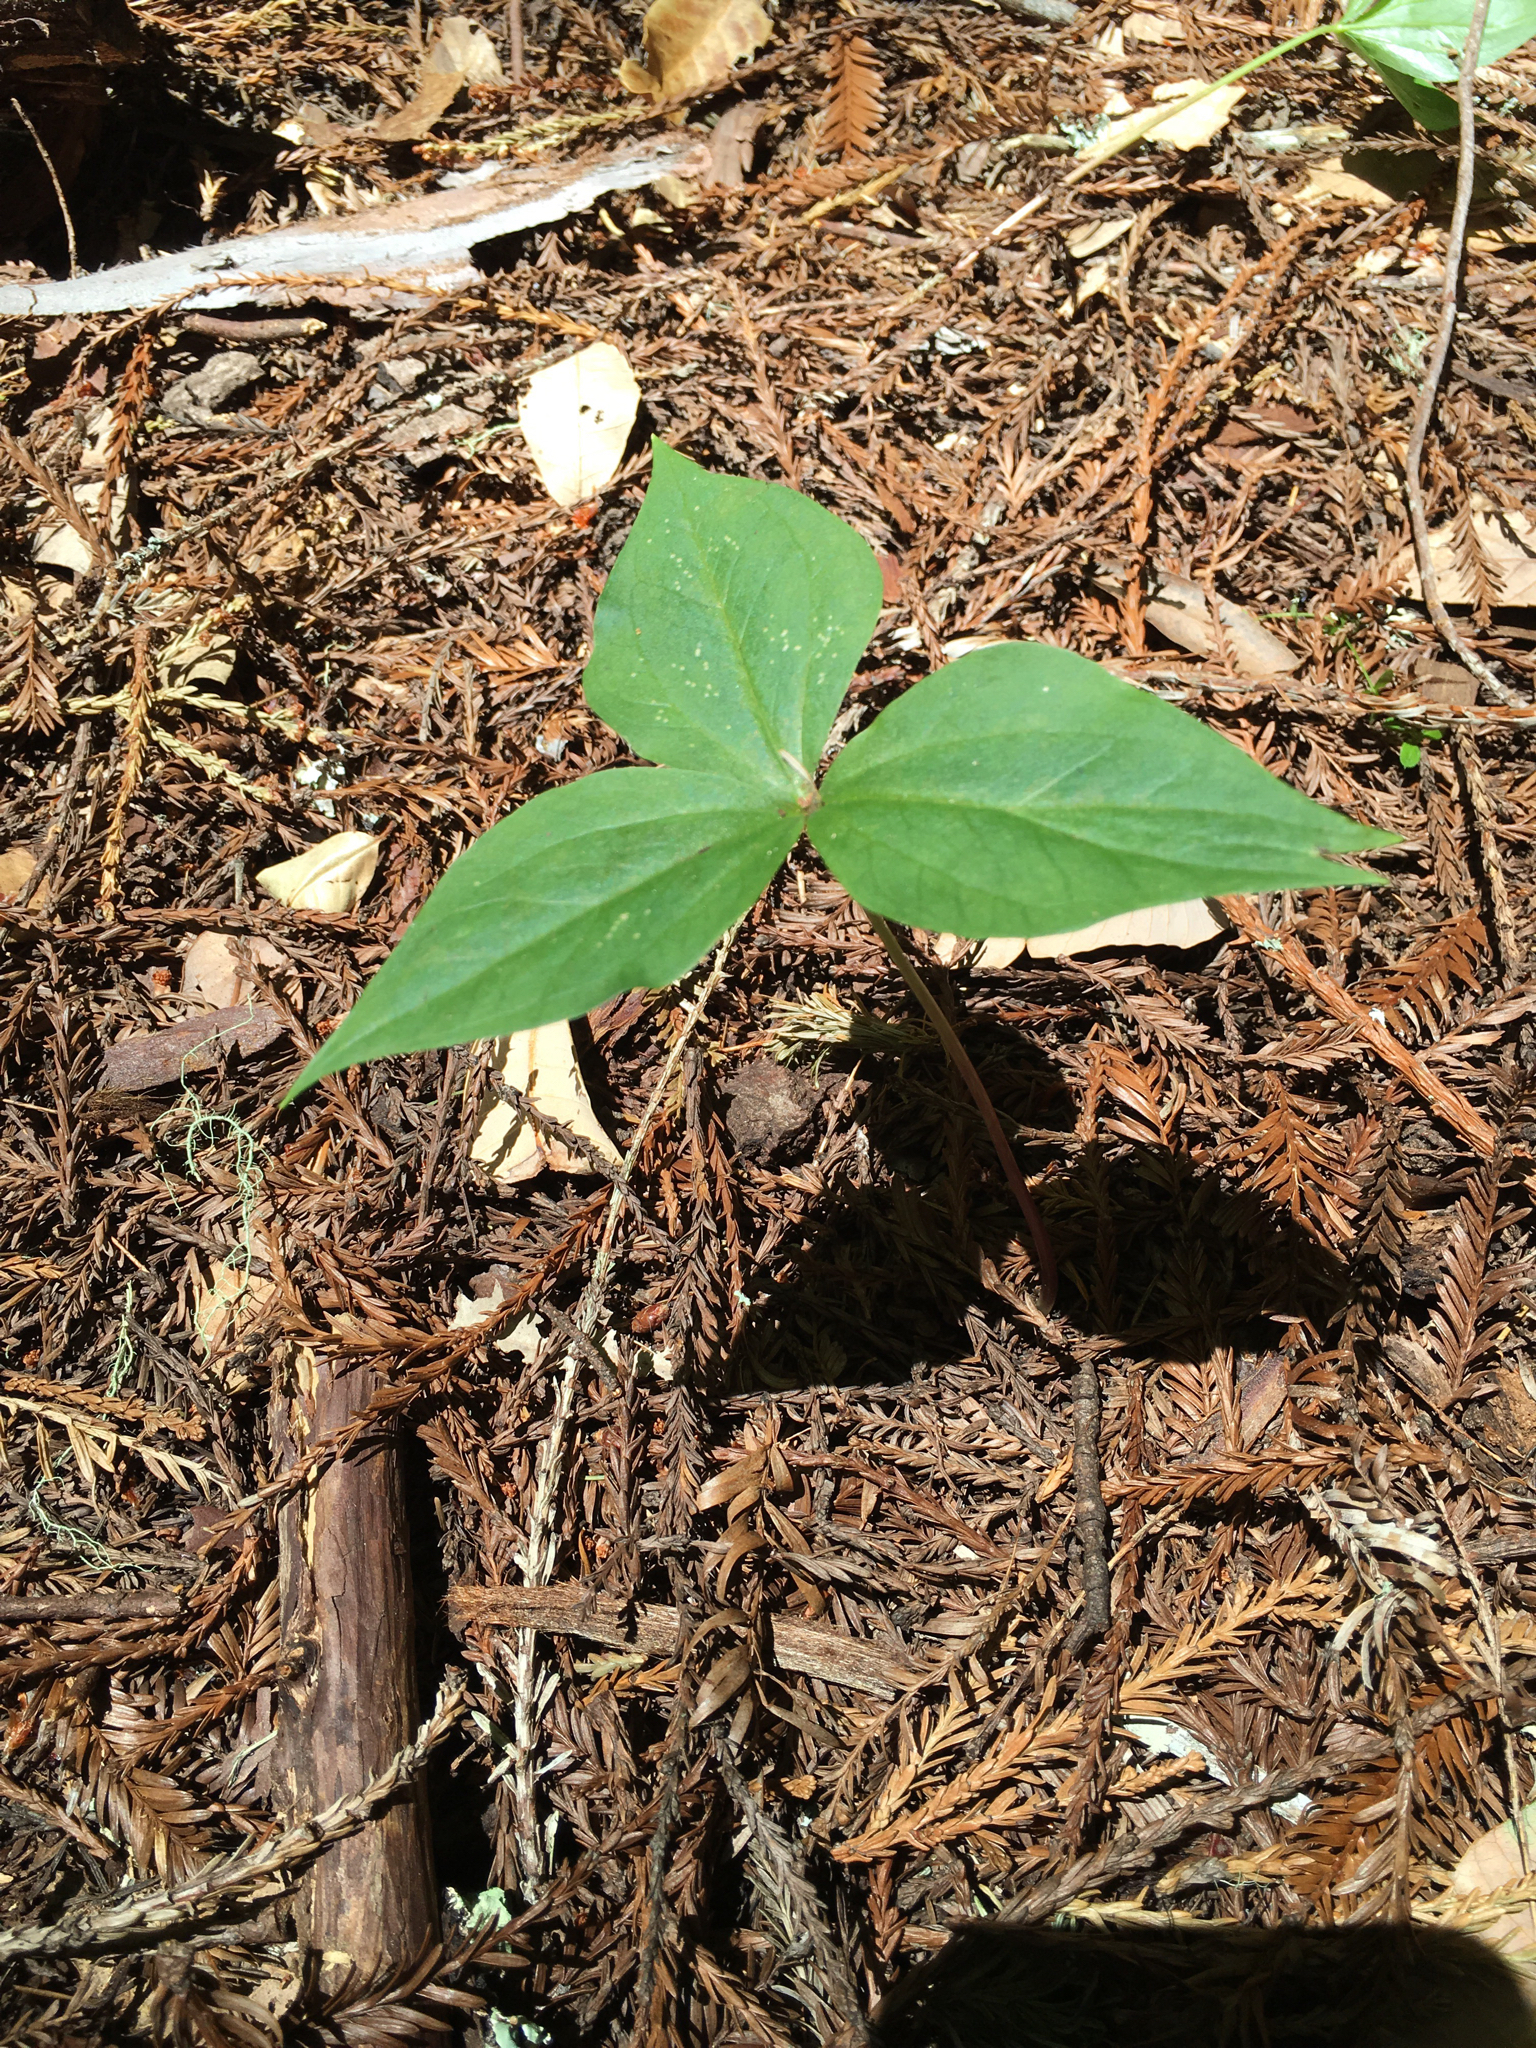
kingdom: Plantae
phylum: Tracheophyta
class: Liliopsida
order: Liliales
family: Melanthiaceae
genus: Trillium
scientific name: Trillium ovatum
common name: Pacific trillium
